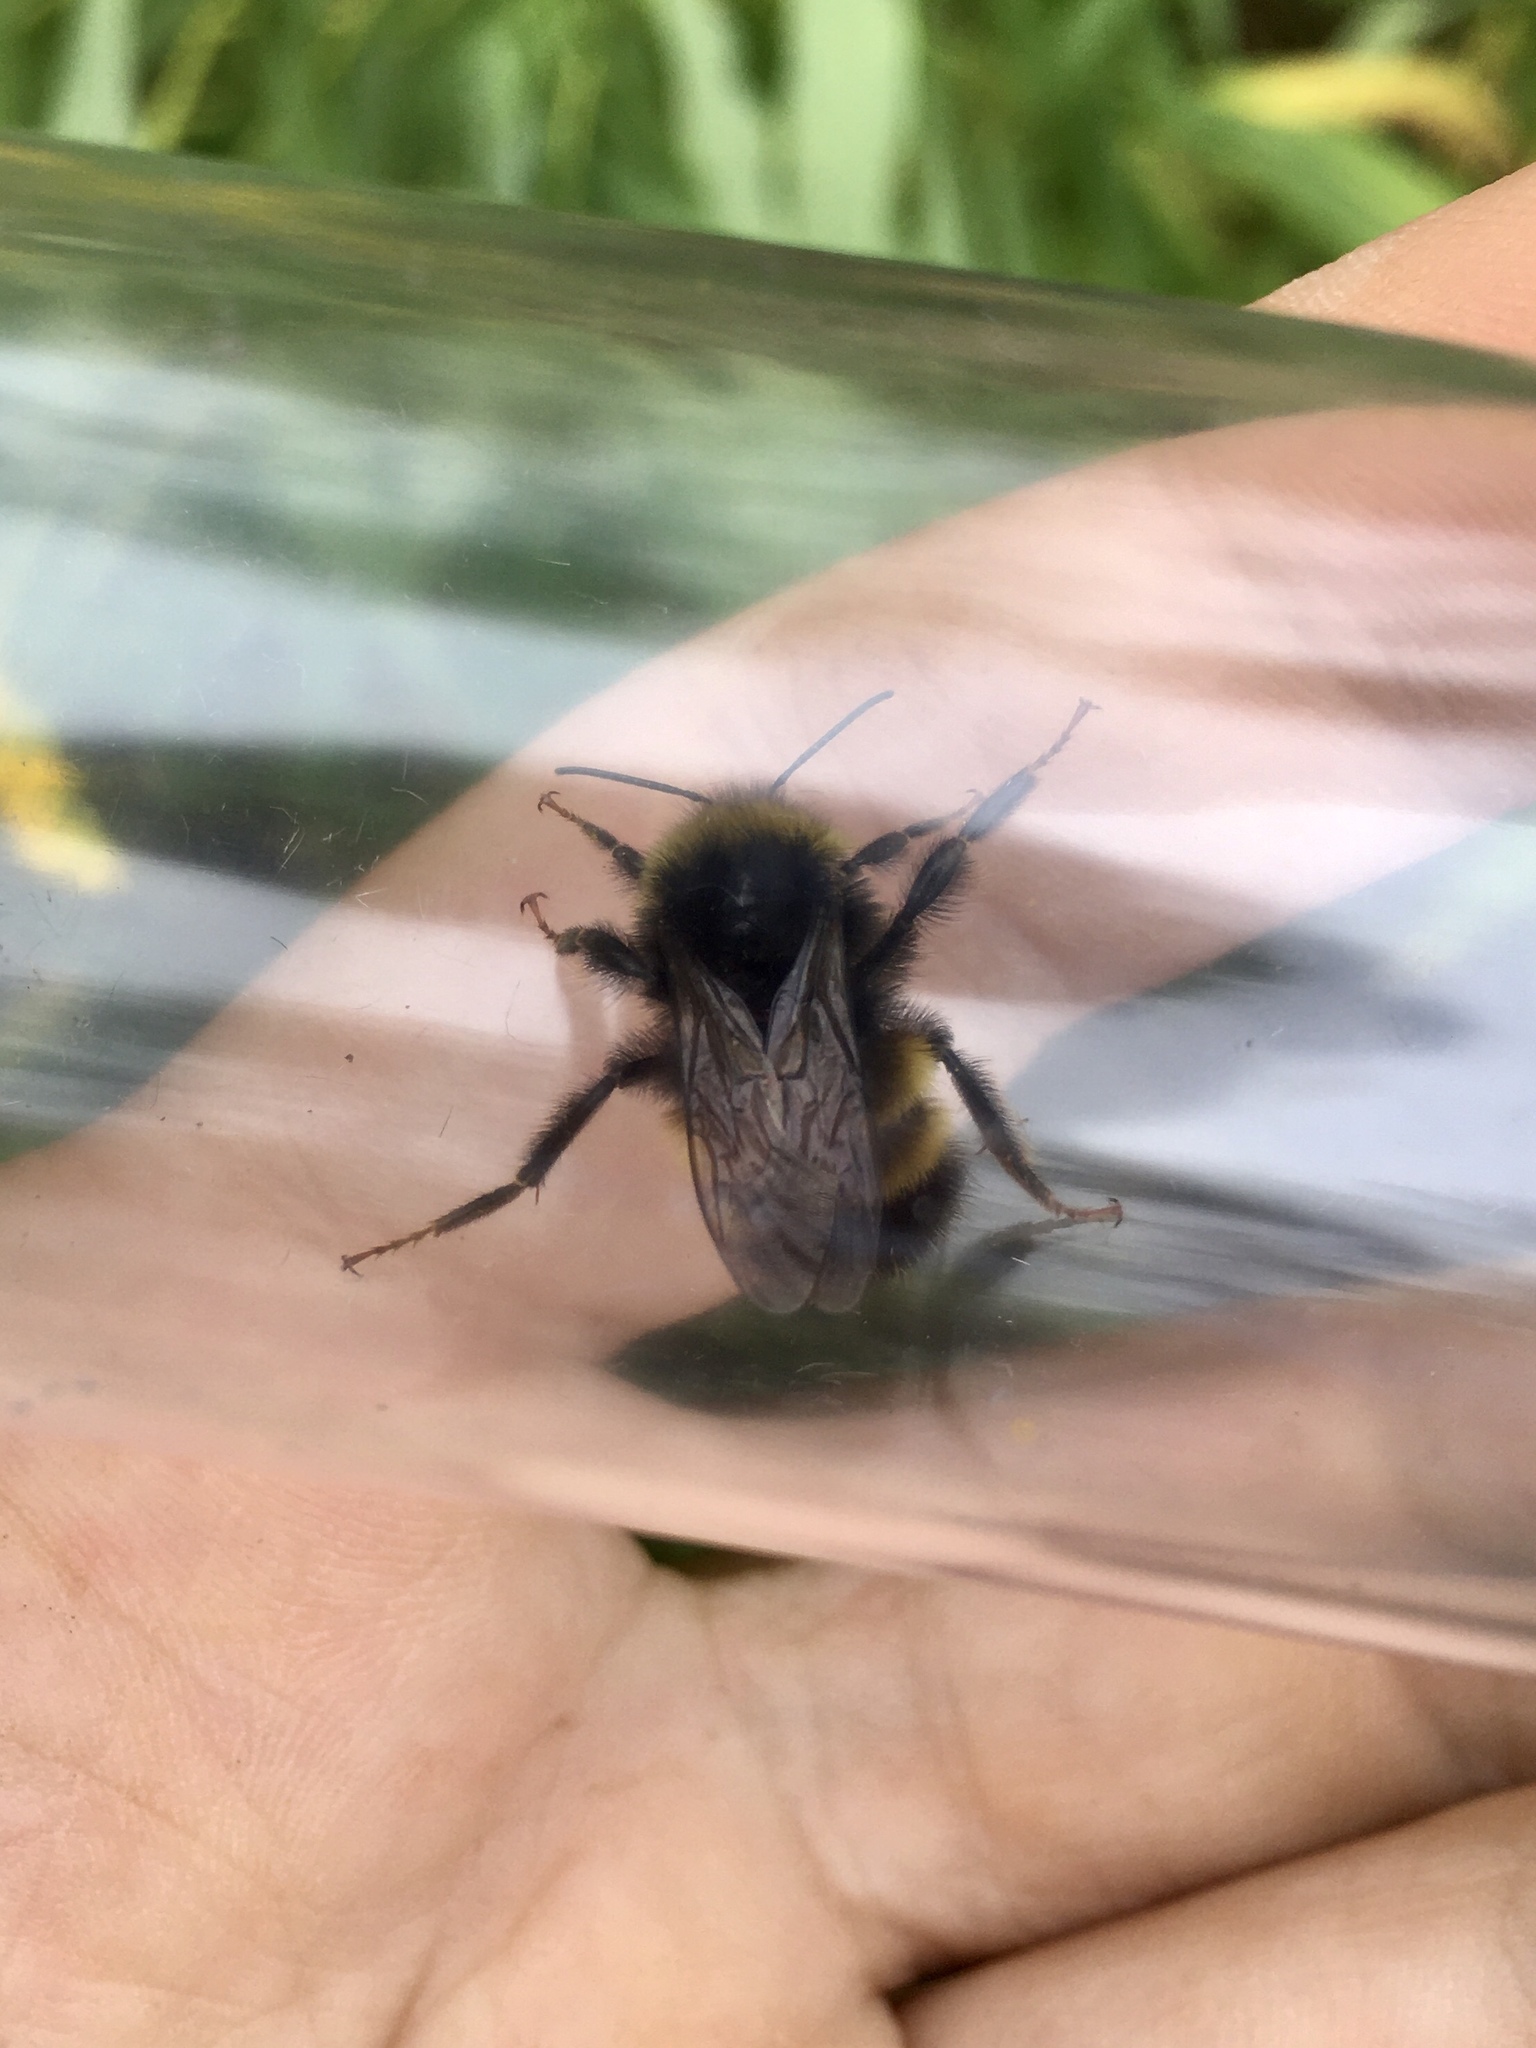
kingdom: Animalia
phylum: Arthropoda
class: Insecta
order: Hymenoptera
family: Apidae
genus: Bombus
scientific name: Bombus terricola
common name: Yellow-banded bumble bee
